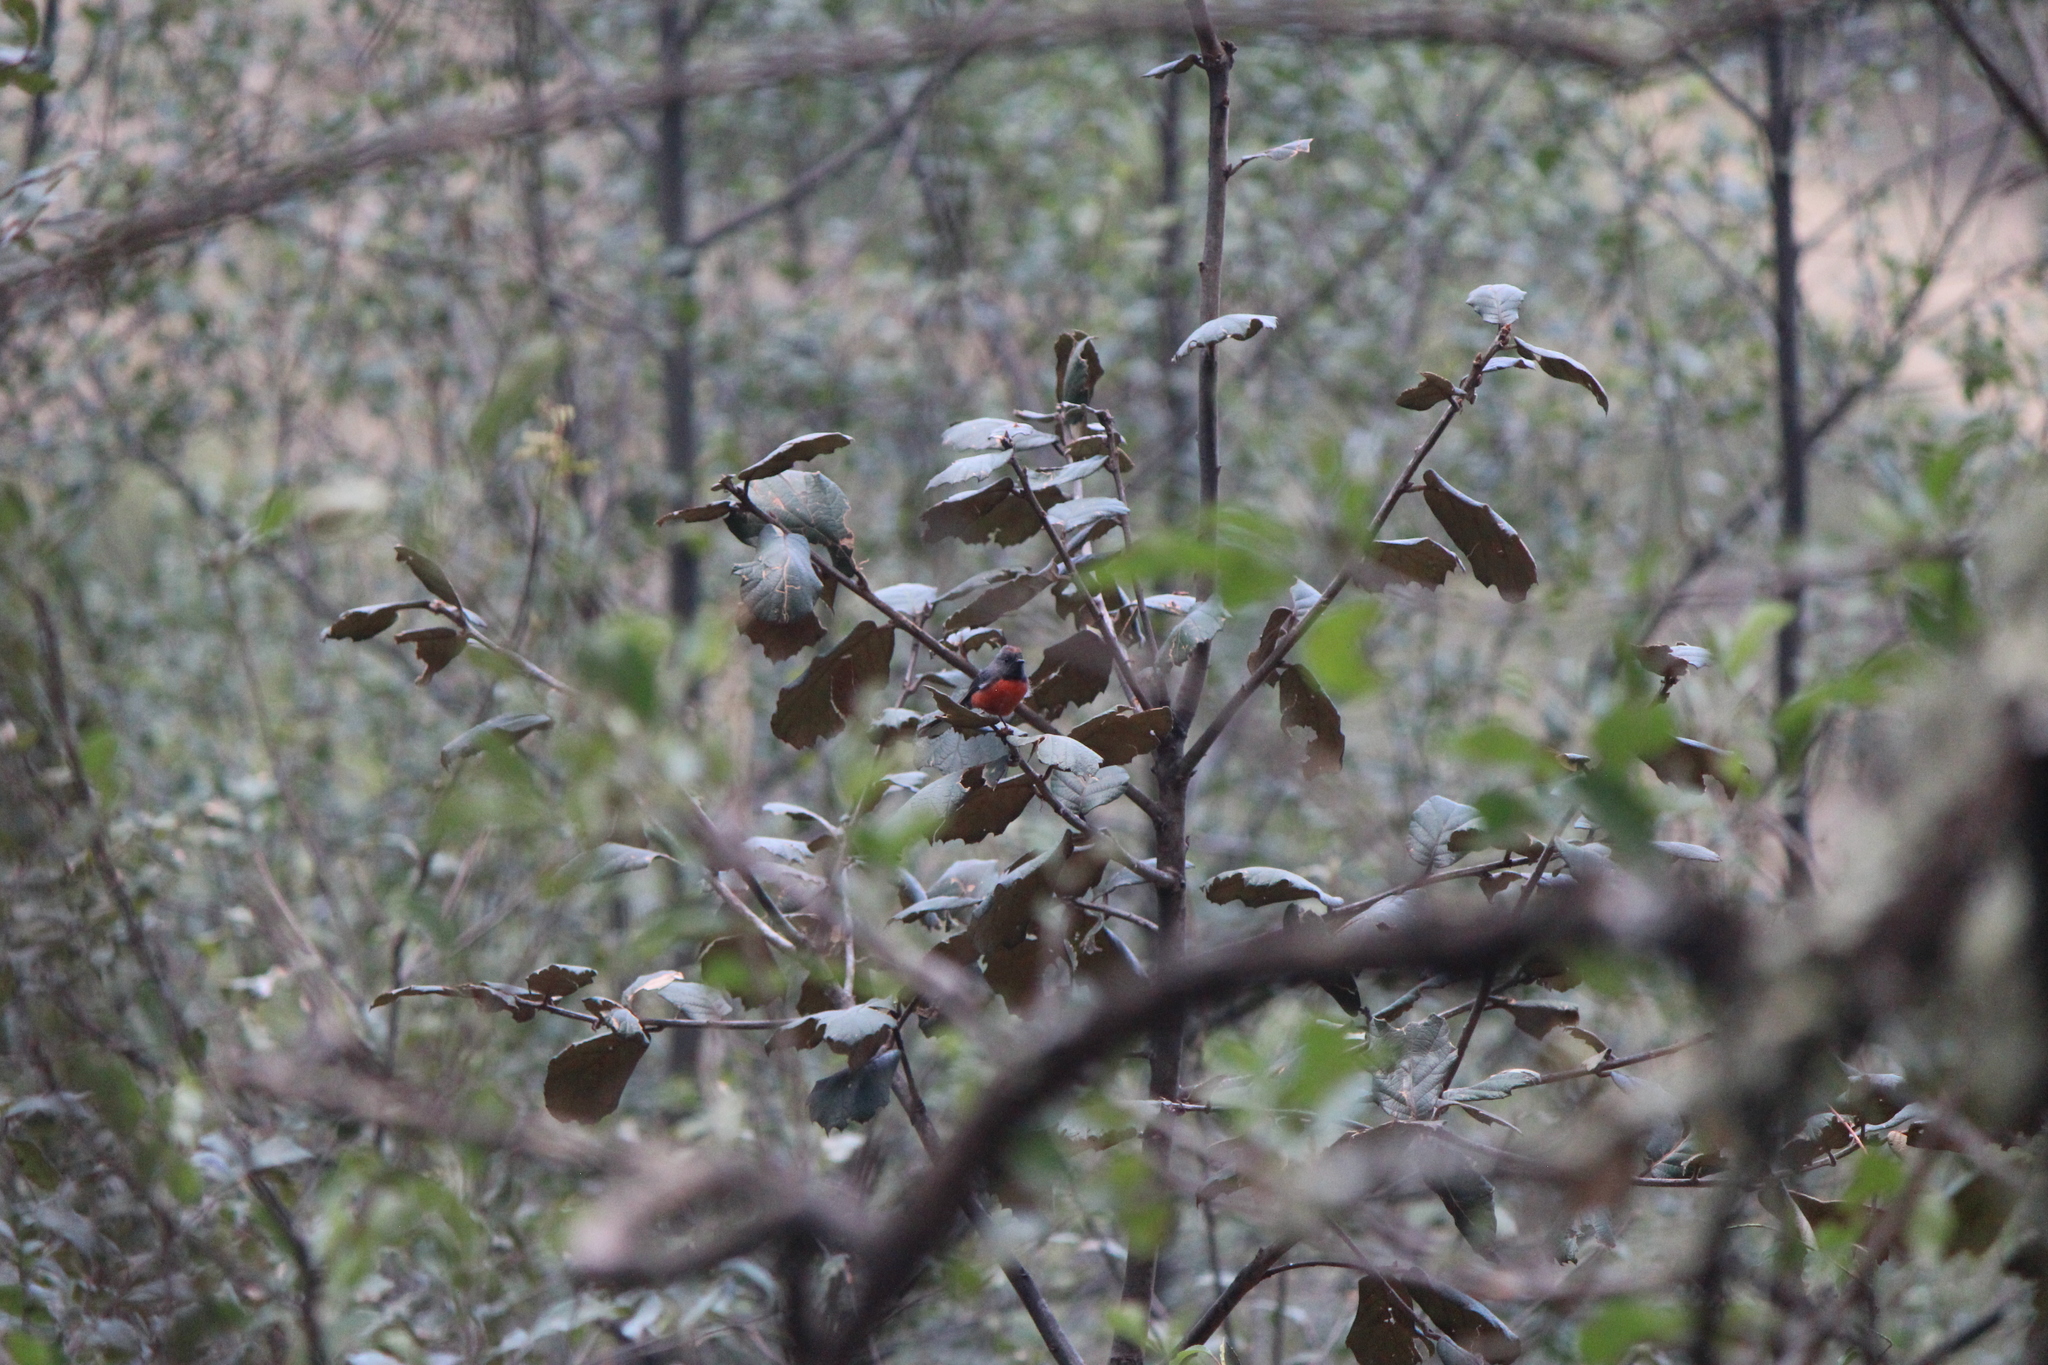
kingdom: Animalia
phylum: Chordata
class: Aves
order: Passeriformes
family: Parulidae
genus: Myioborus
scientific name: Myioborus miniatus
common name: Slate-throated redstart
